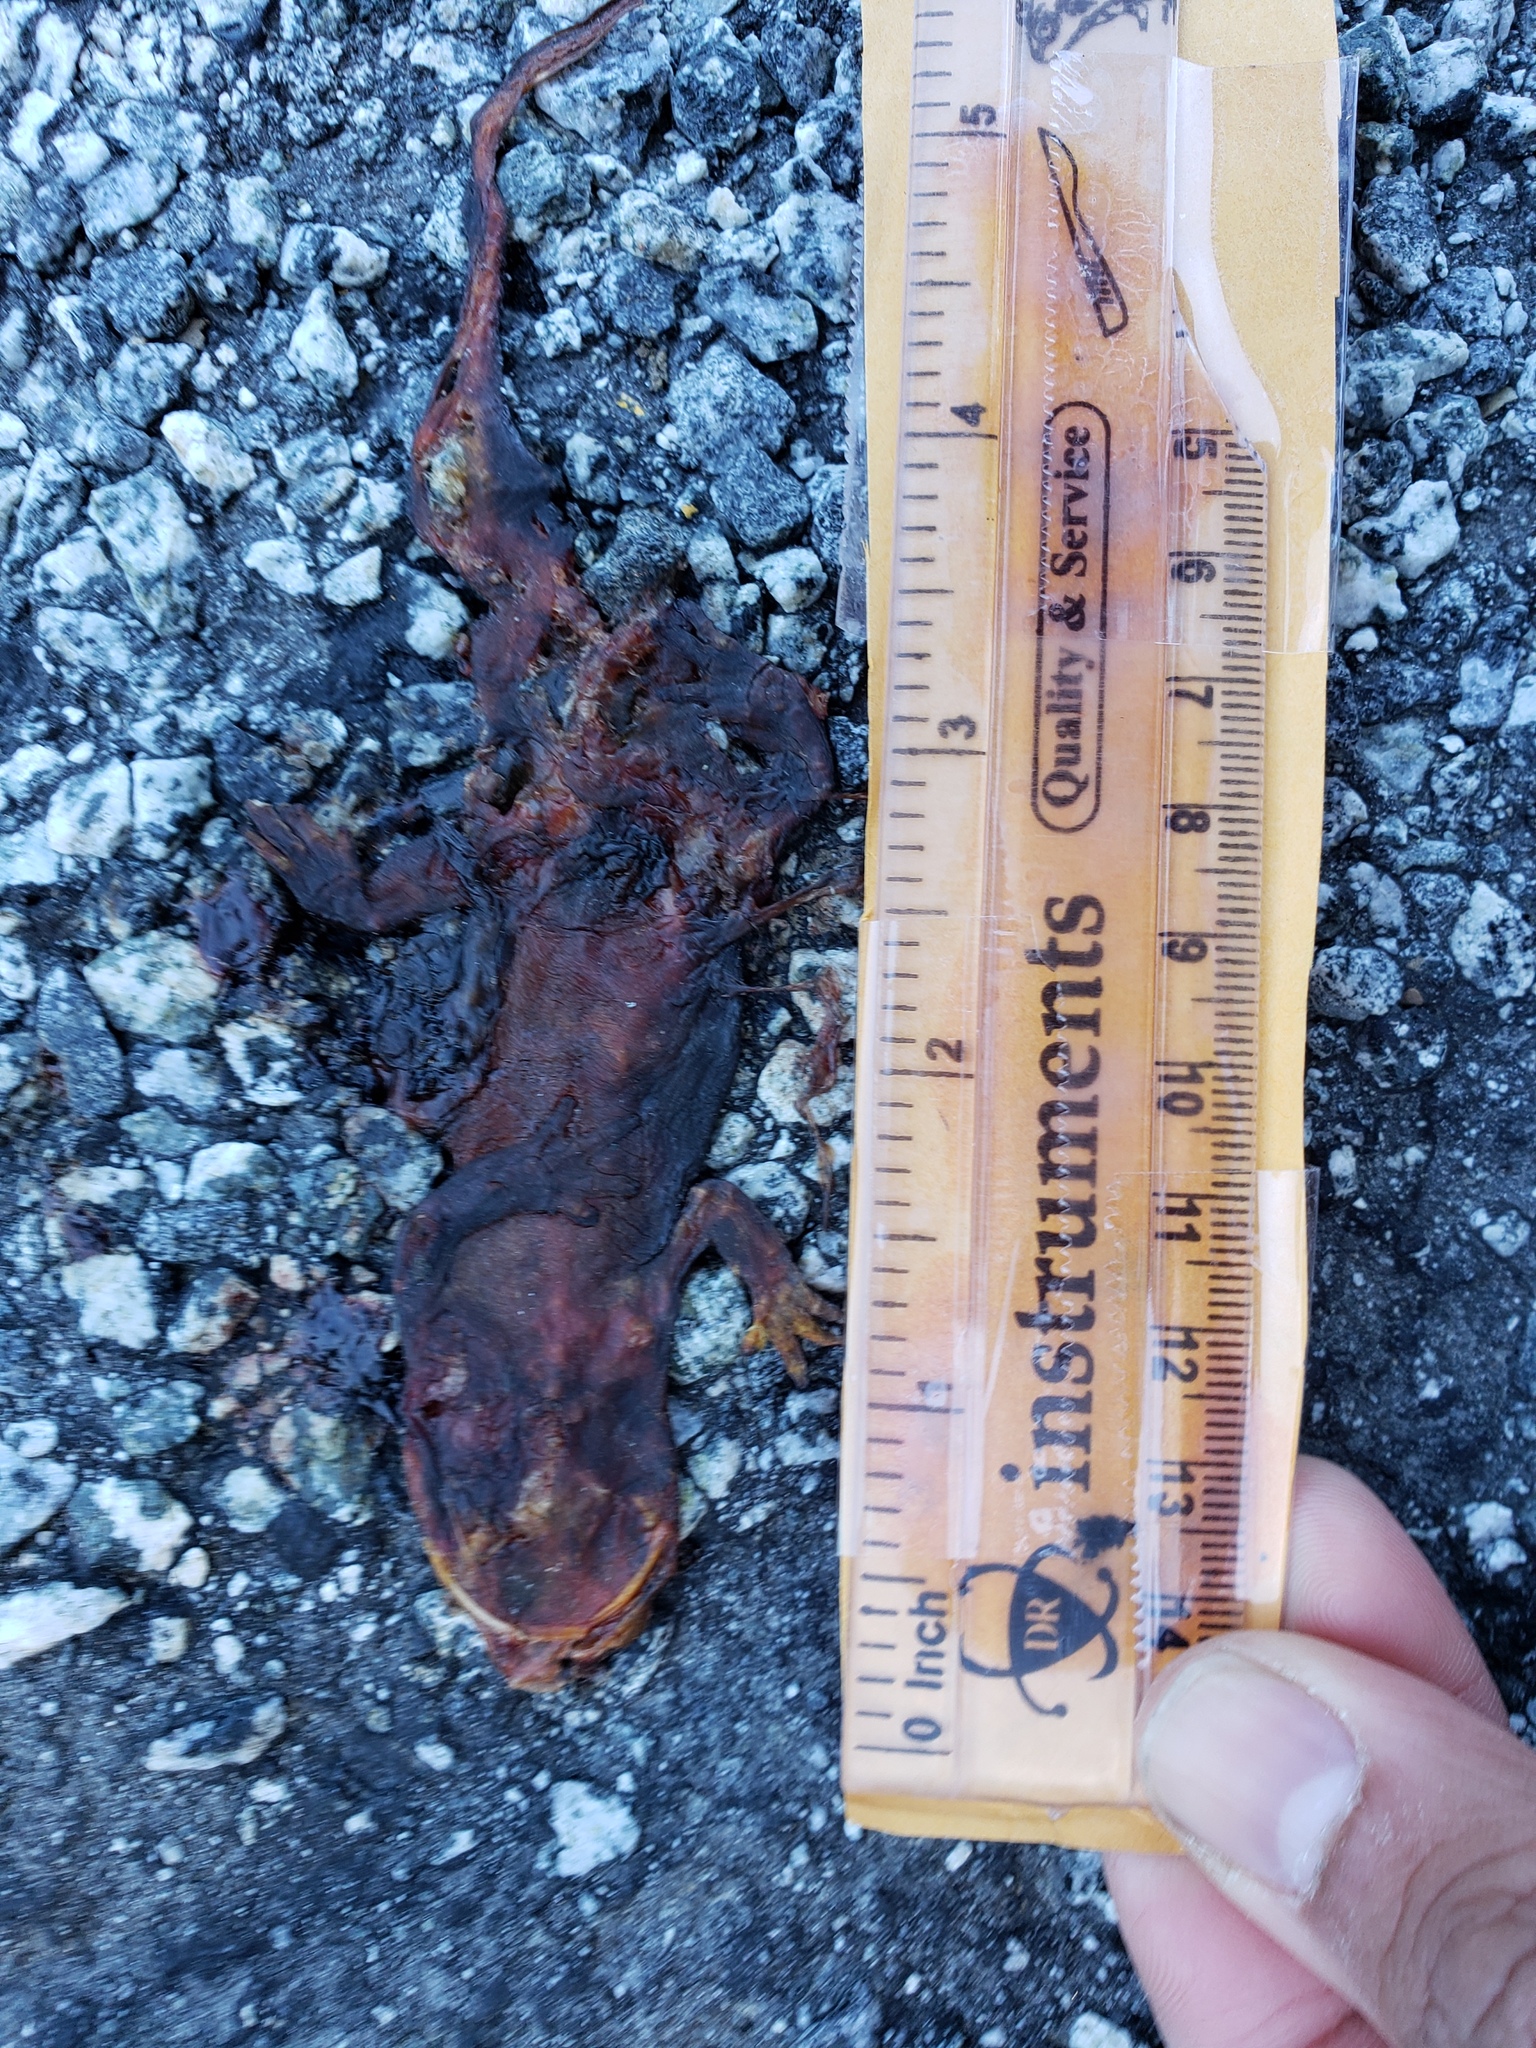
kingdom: Animalia
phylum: Chordata
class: Amphibia
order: Caudata
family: Salamandridae
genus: Taricha
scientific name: Taricha
